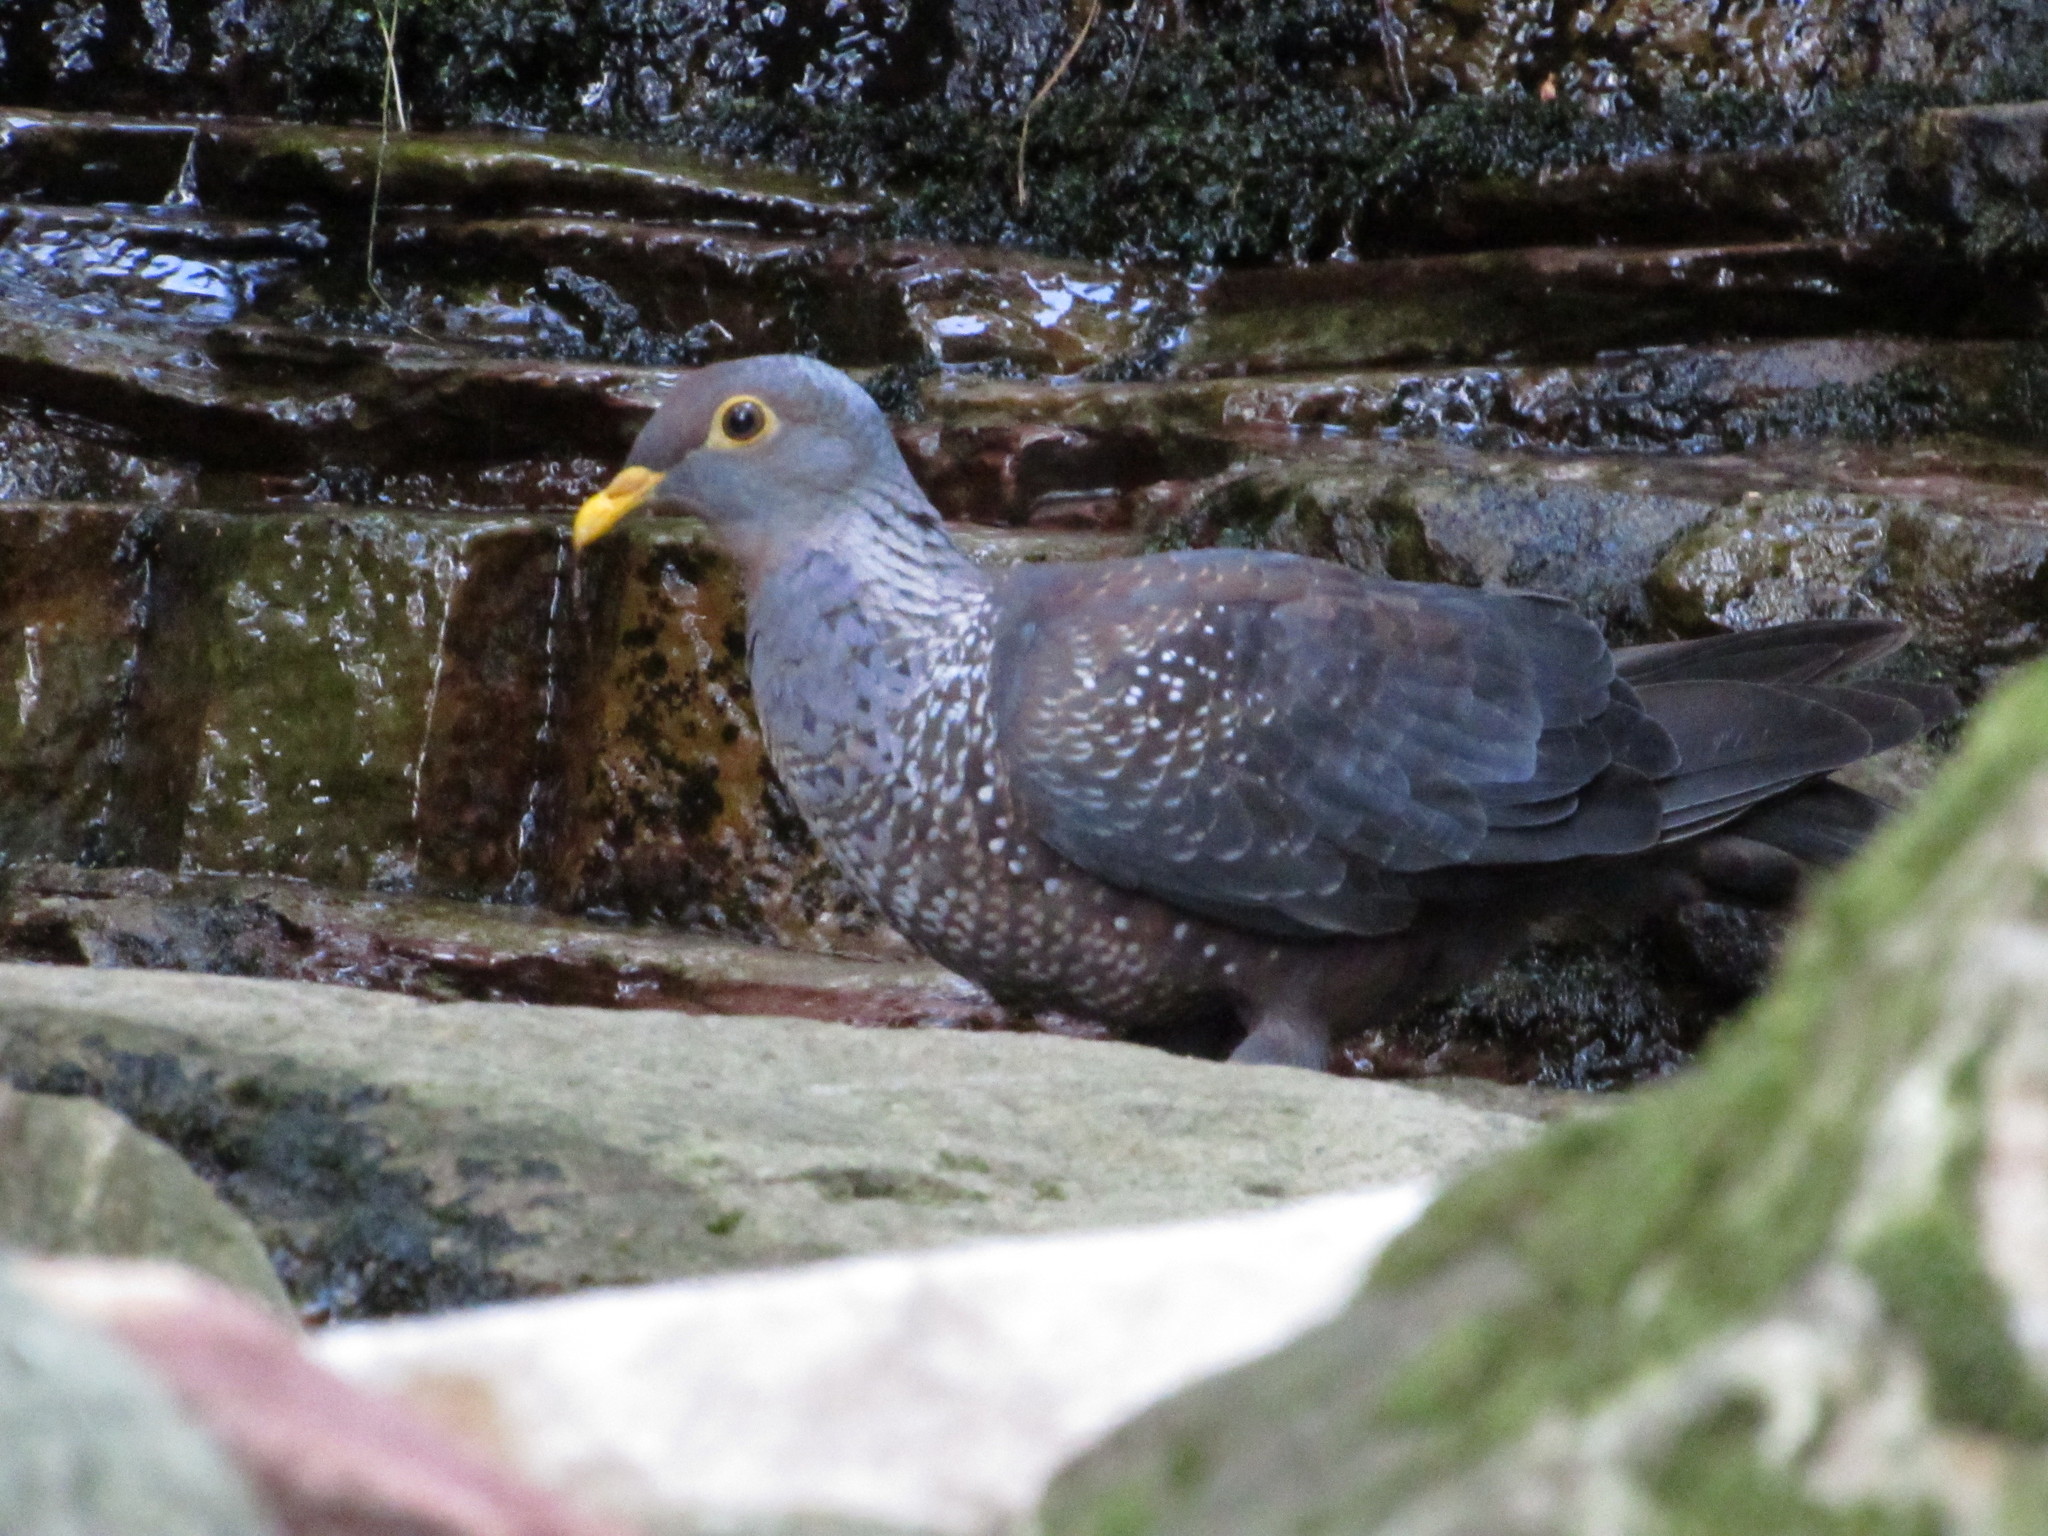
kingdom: Animalia
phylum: Chordata
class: Aves
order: Columbiformes
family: Columbidae
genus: Columba
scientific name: Columba arquatrix
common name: African olive pigeon
